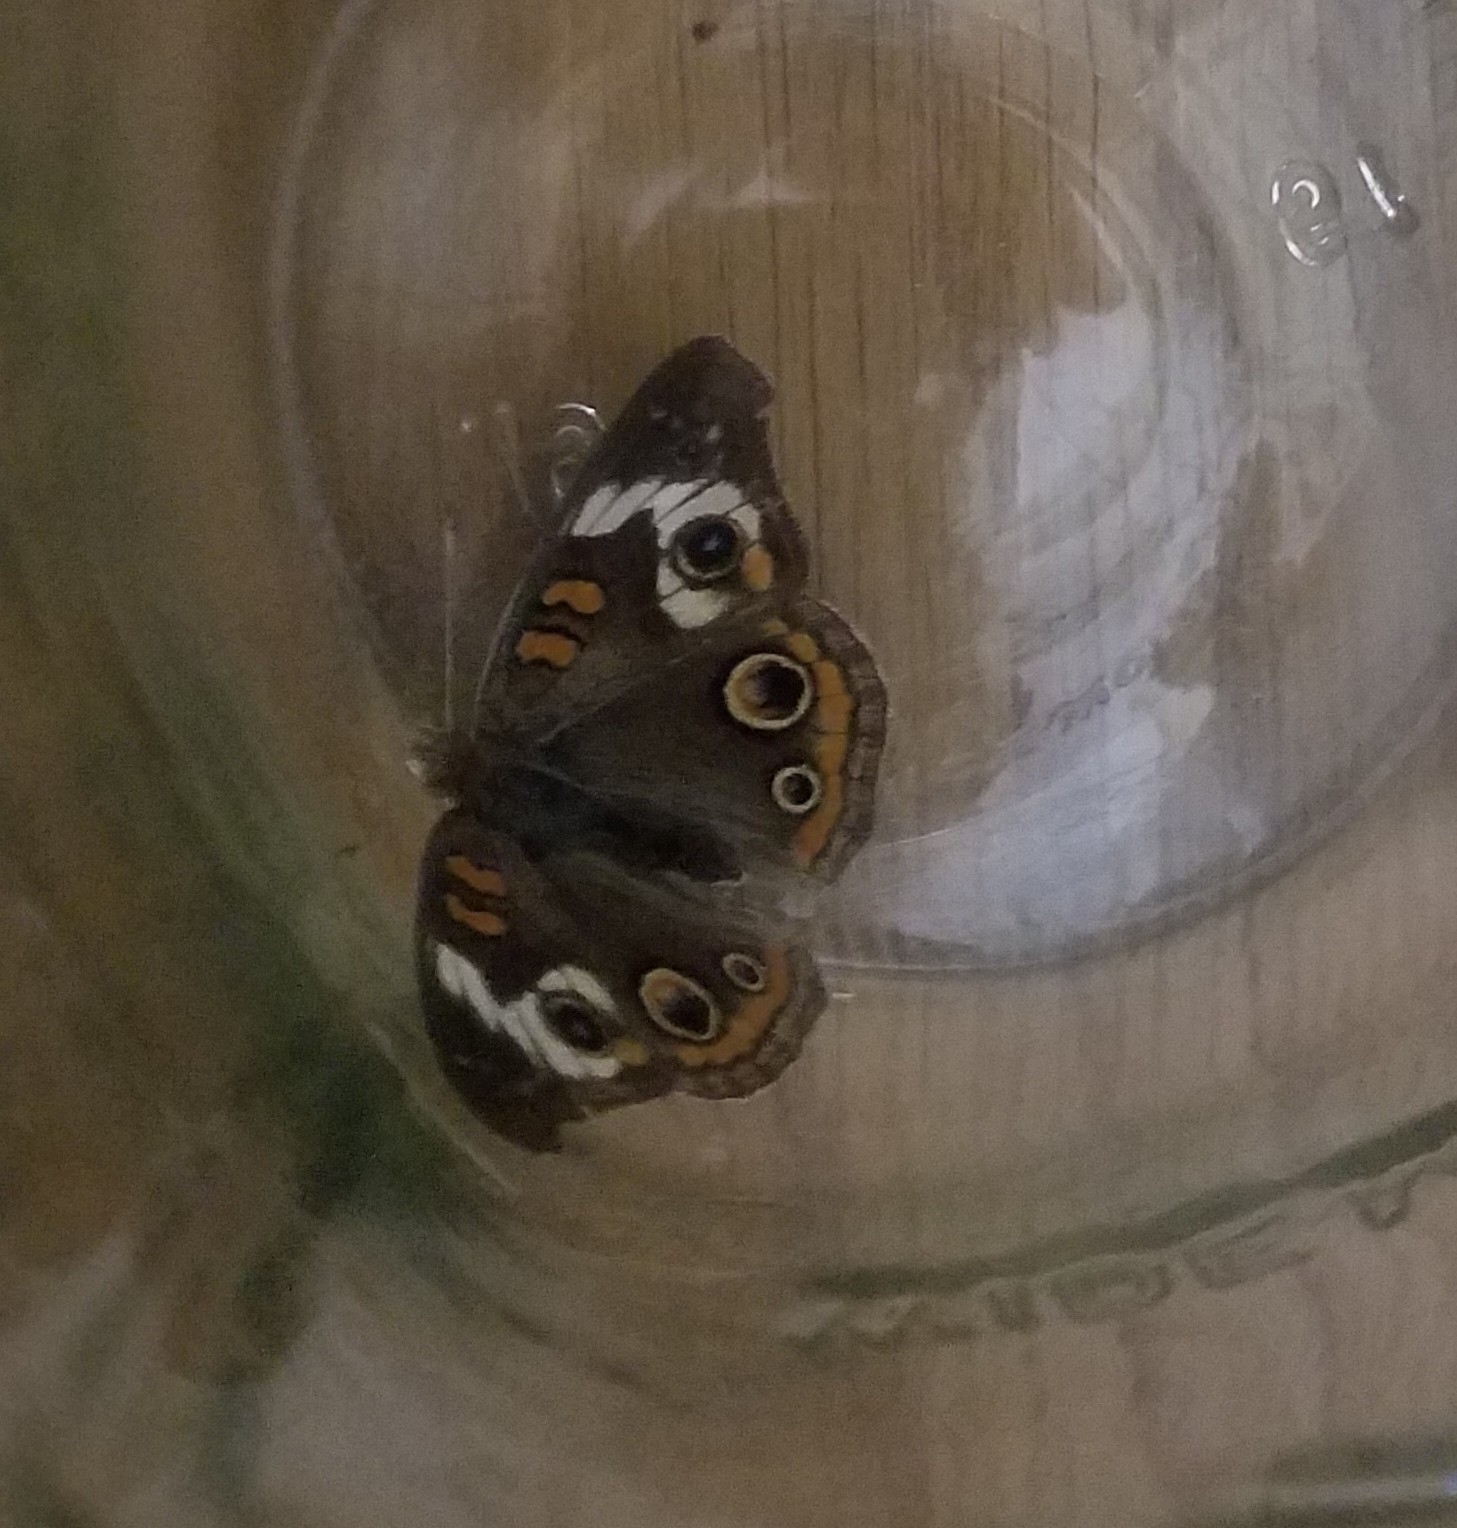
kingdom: Animalia
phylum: Arthropoda
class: Insecta
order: Lepidoptera
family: Nymphalidae
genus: Junonia
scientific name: Junonia coenia
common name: Common buckeye
